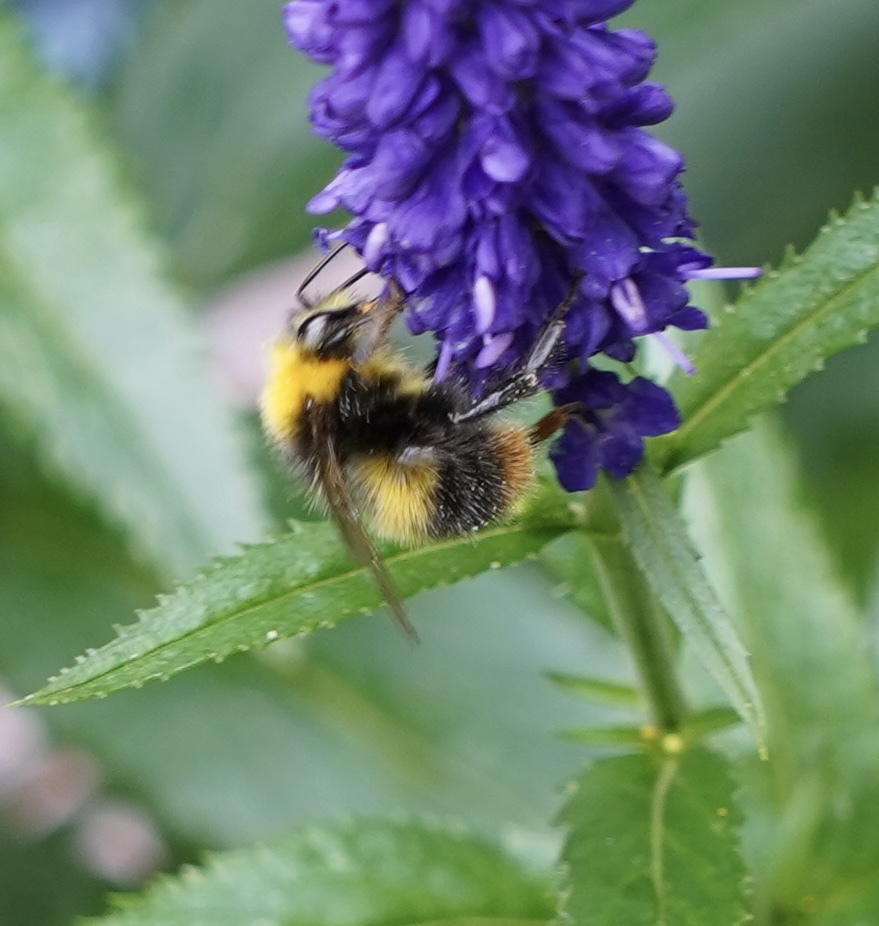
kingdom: Animalia
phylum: Arthropoda
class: Insecta
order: Hymenoptera
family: Apidae
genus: Bombus
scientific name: Bombus pratorum
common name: Early humble-bee
